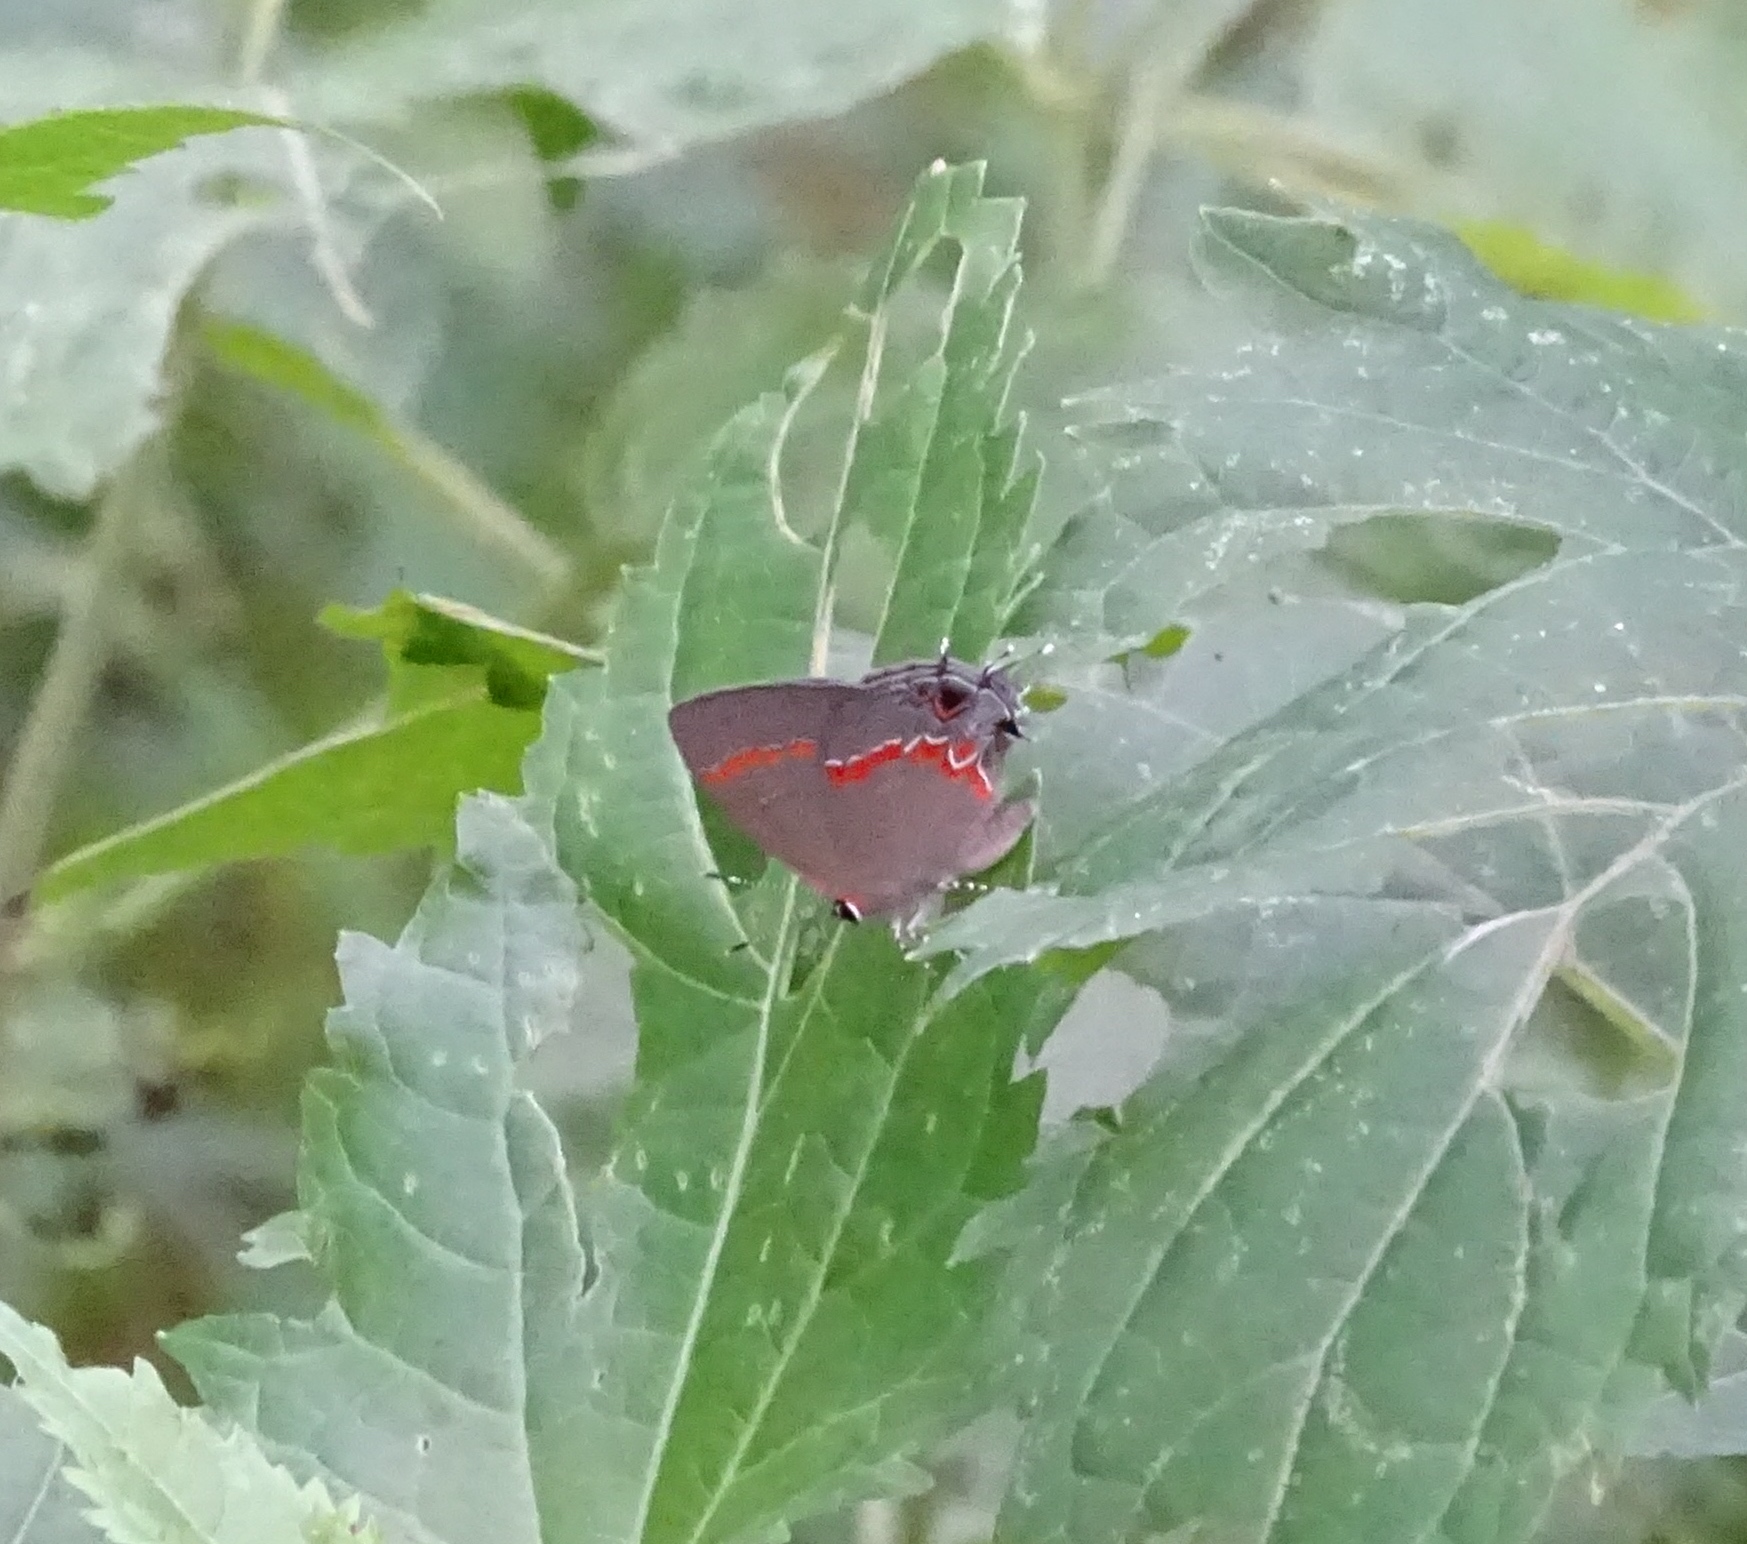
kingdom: Animalia
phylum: Arthropoda
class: Insecta
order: Lepidoptera
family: Lycaenidae
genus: Calycopis
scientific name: Calycopis cecrops
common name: Red-banded hairstreak
